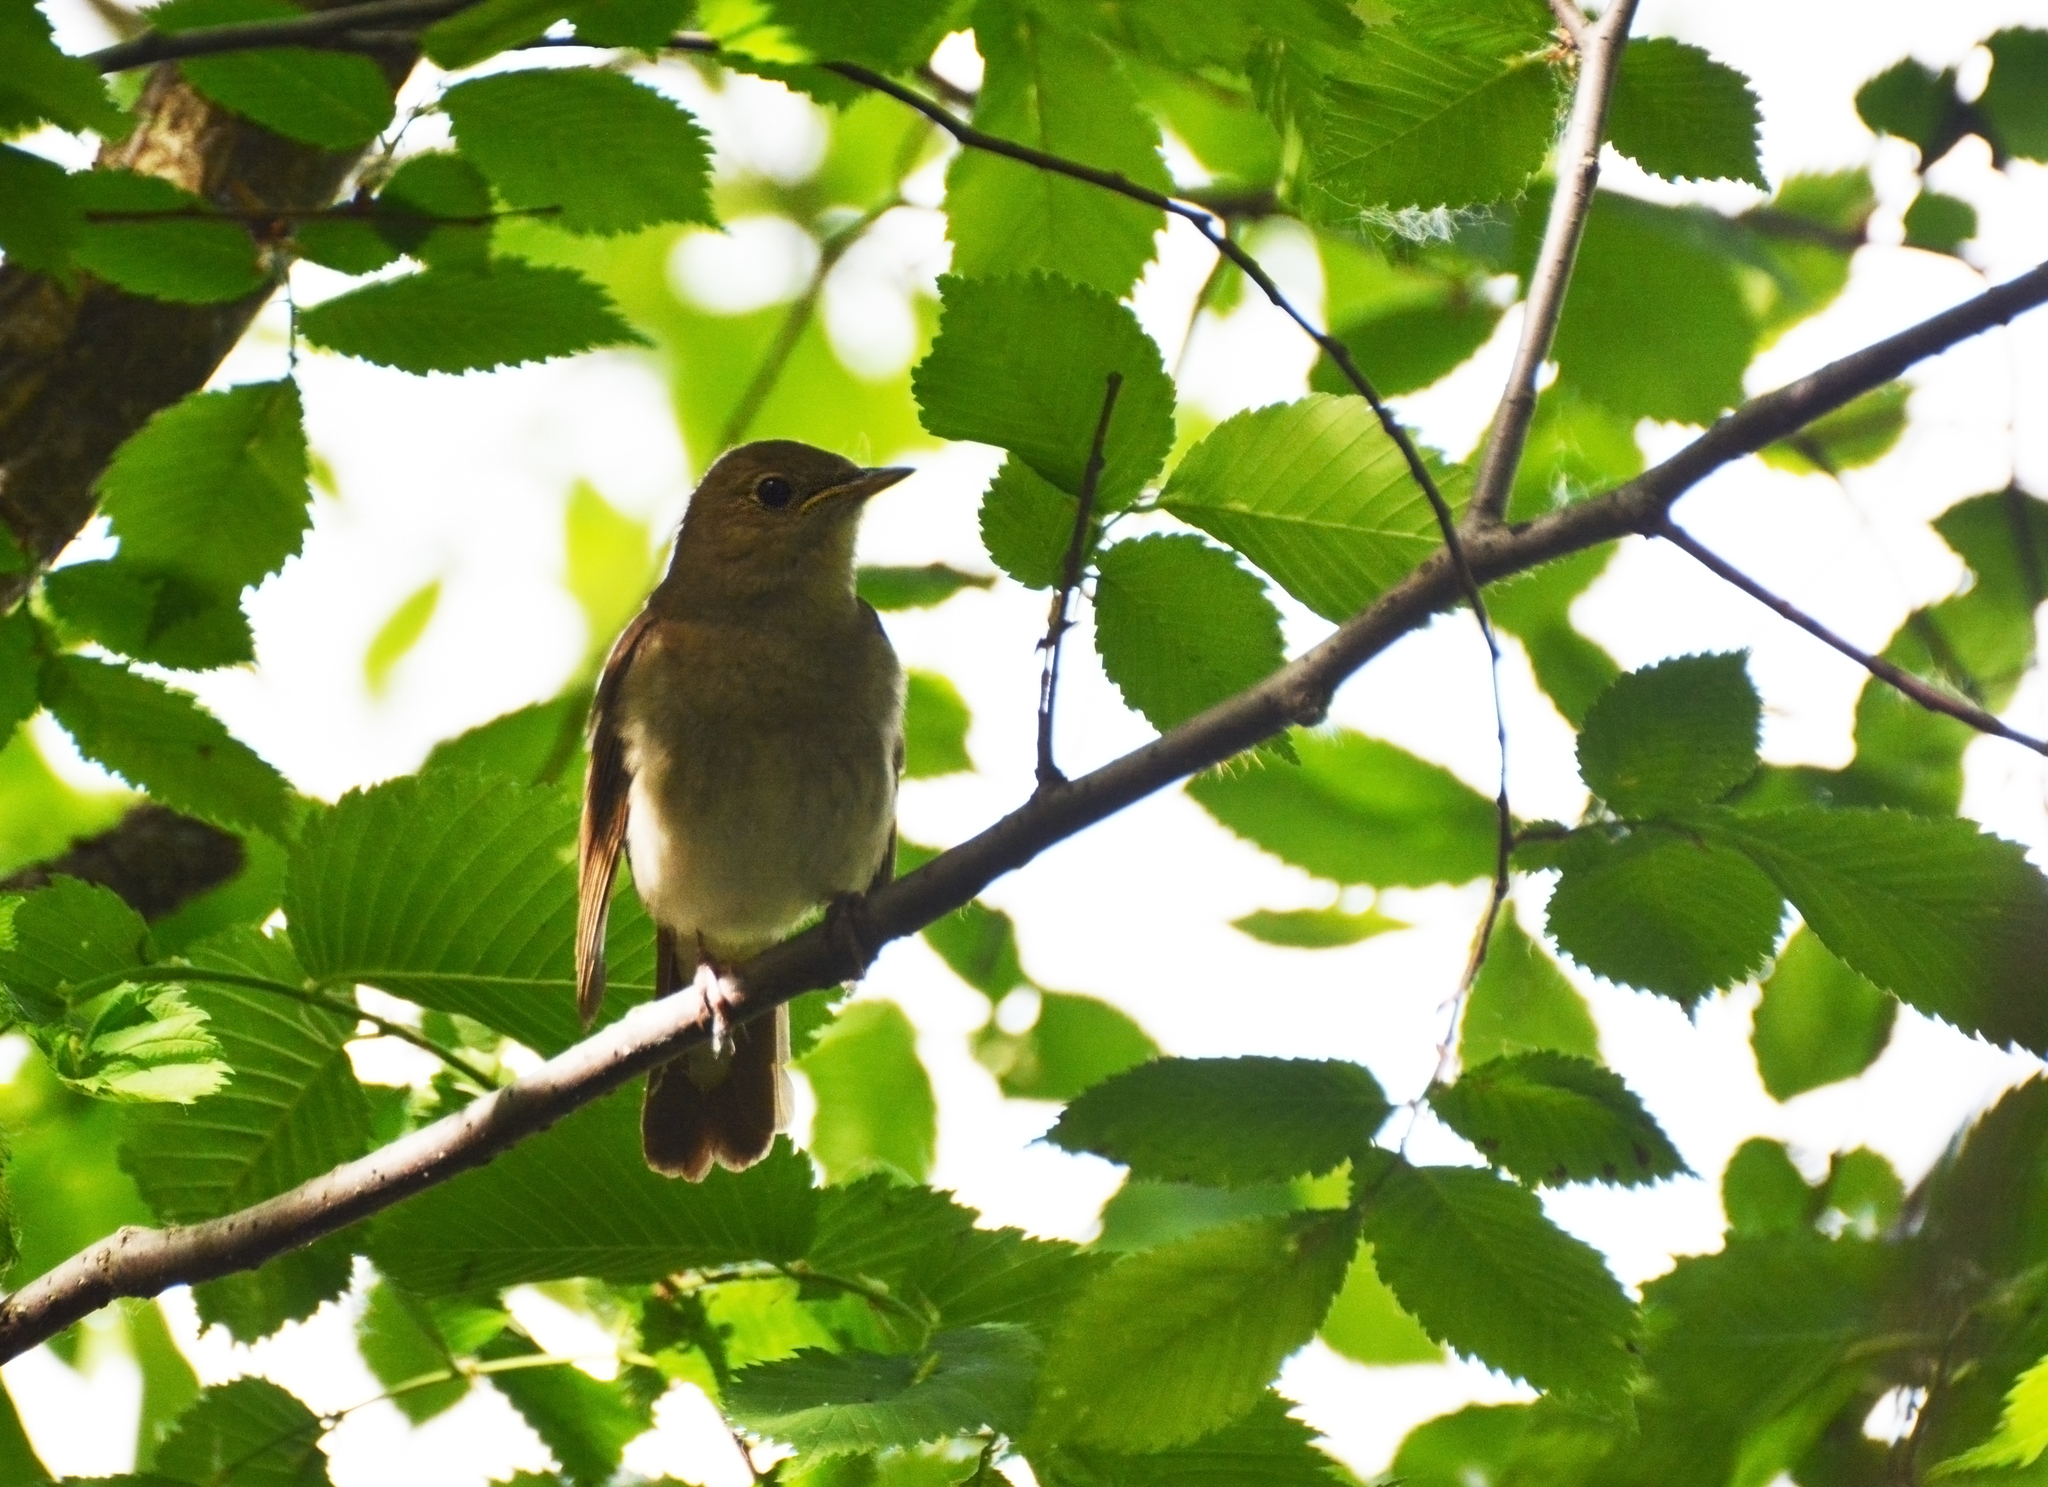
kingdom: Animalia
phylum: Chordata
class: Aves
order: Passeriformes
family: Muscicapidae
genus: Luscinia
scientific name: Luscinia luscinia
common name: Thrush nightingale
